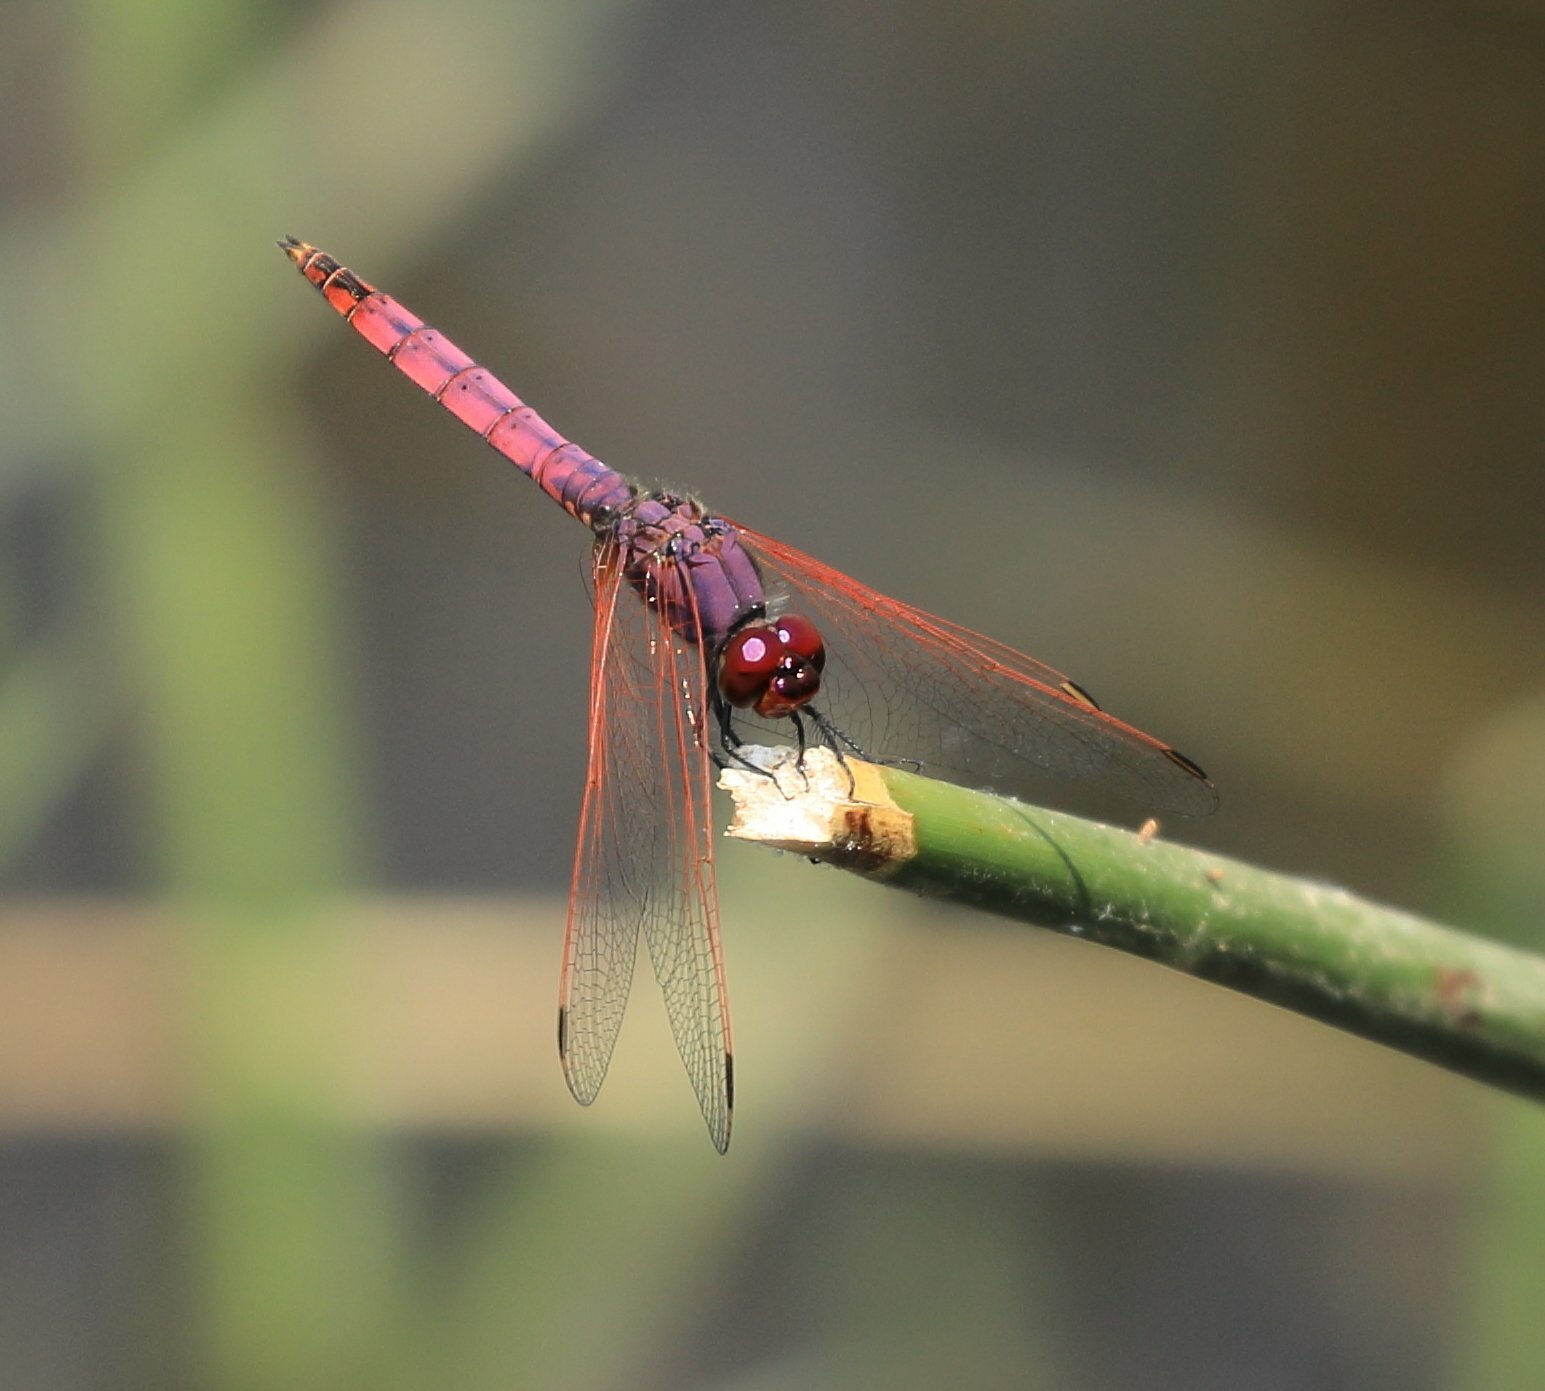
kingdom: Animalia
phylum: Arthropoda
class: Insecta
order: Odonata
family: Libellulidae
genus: Trithemis
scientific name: Trithemis annulata
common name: Violet dropwing
